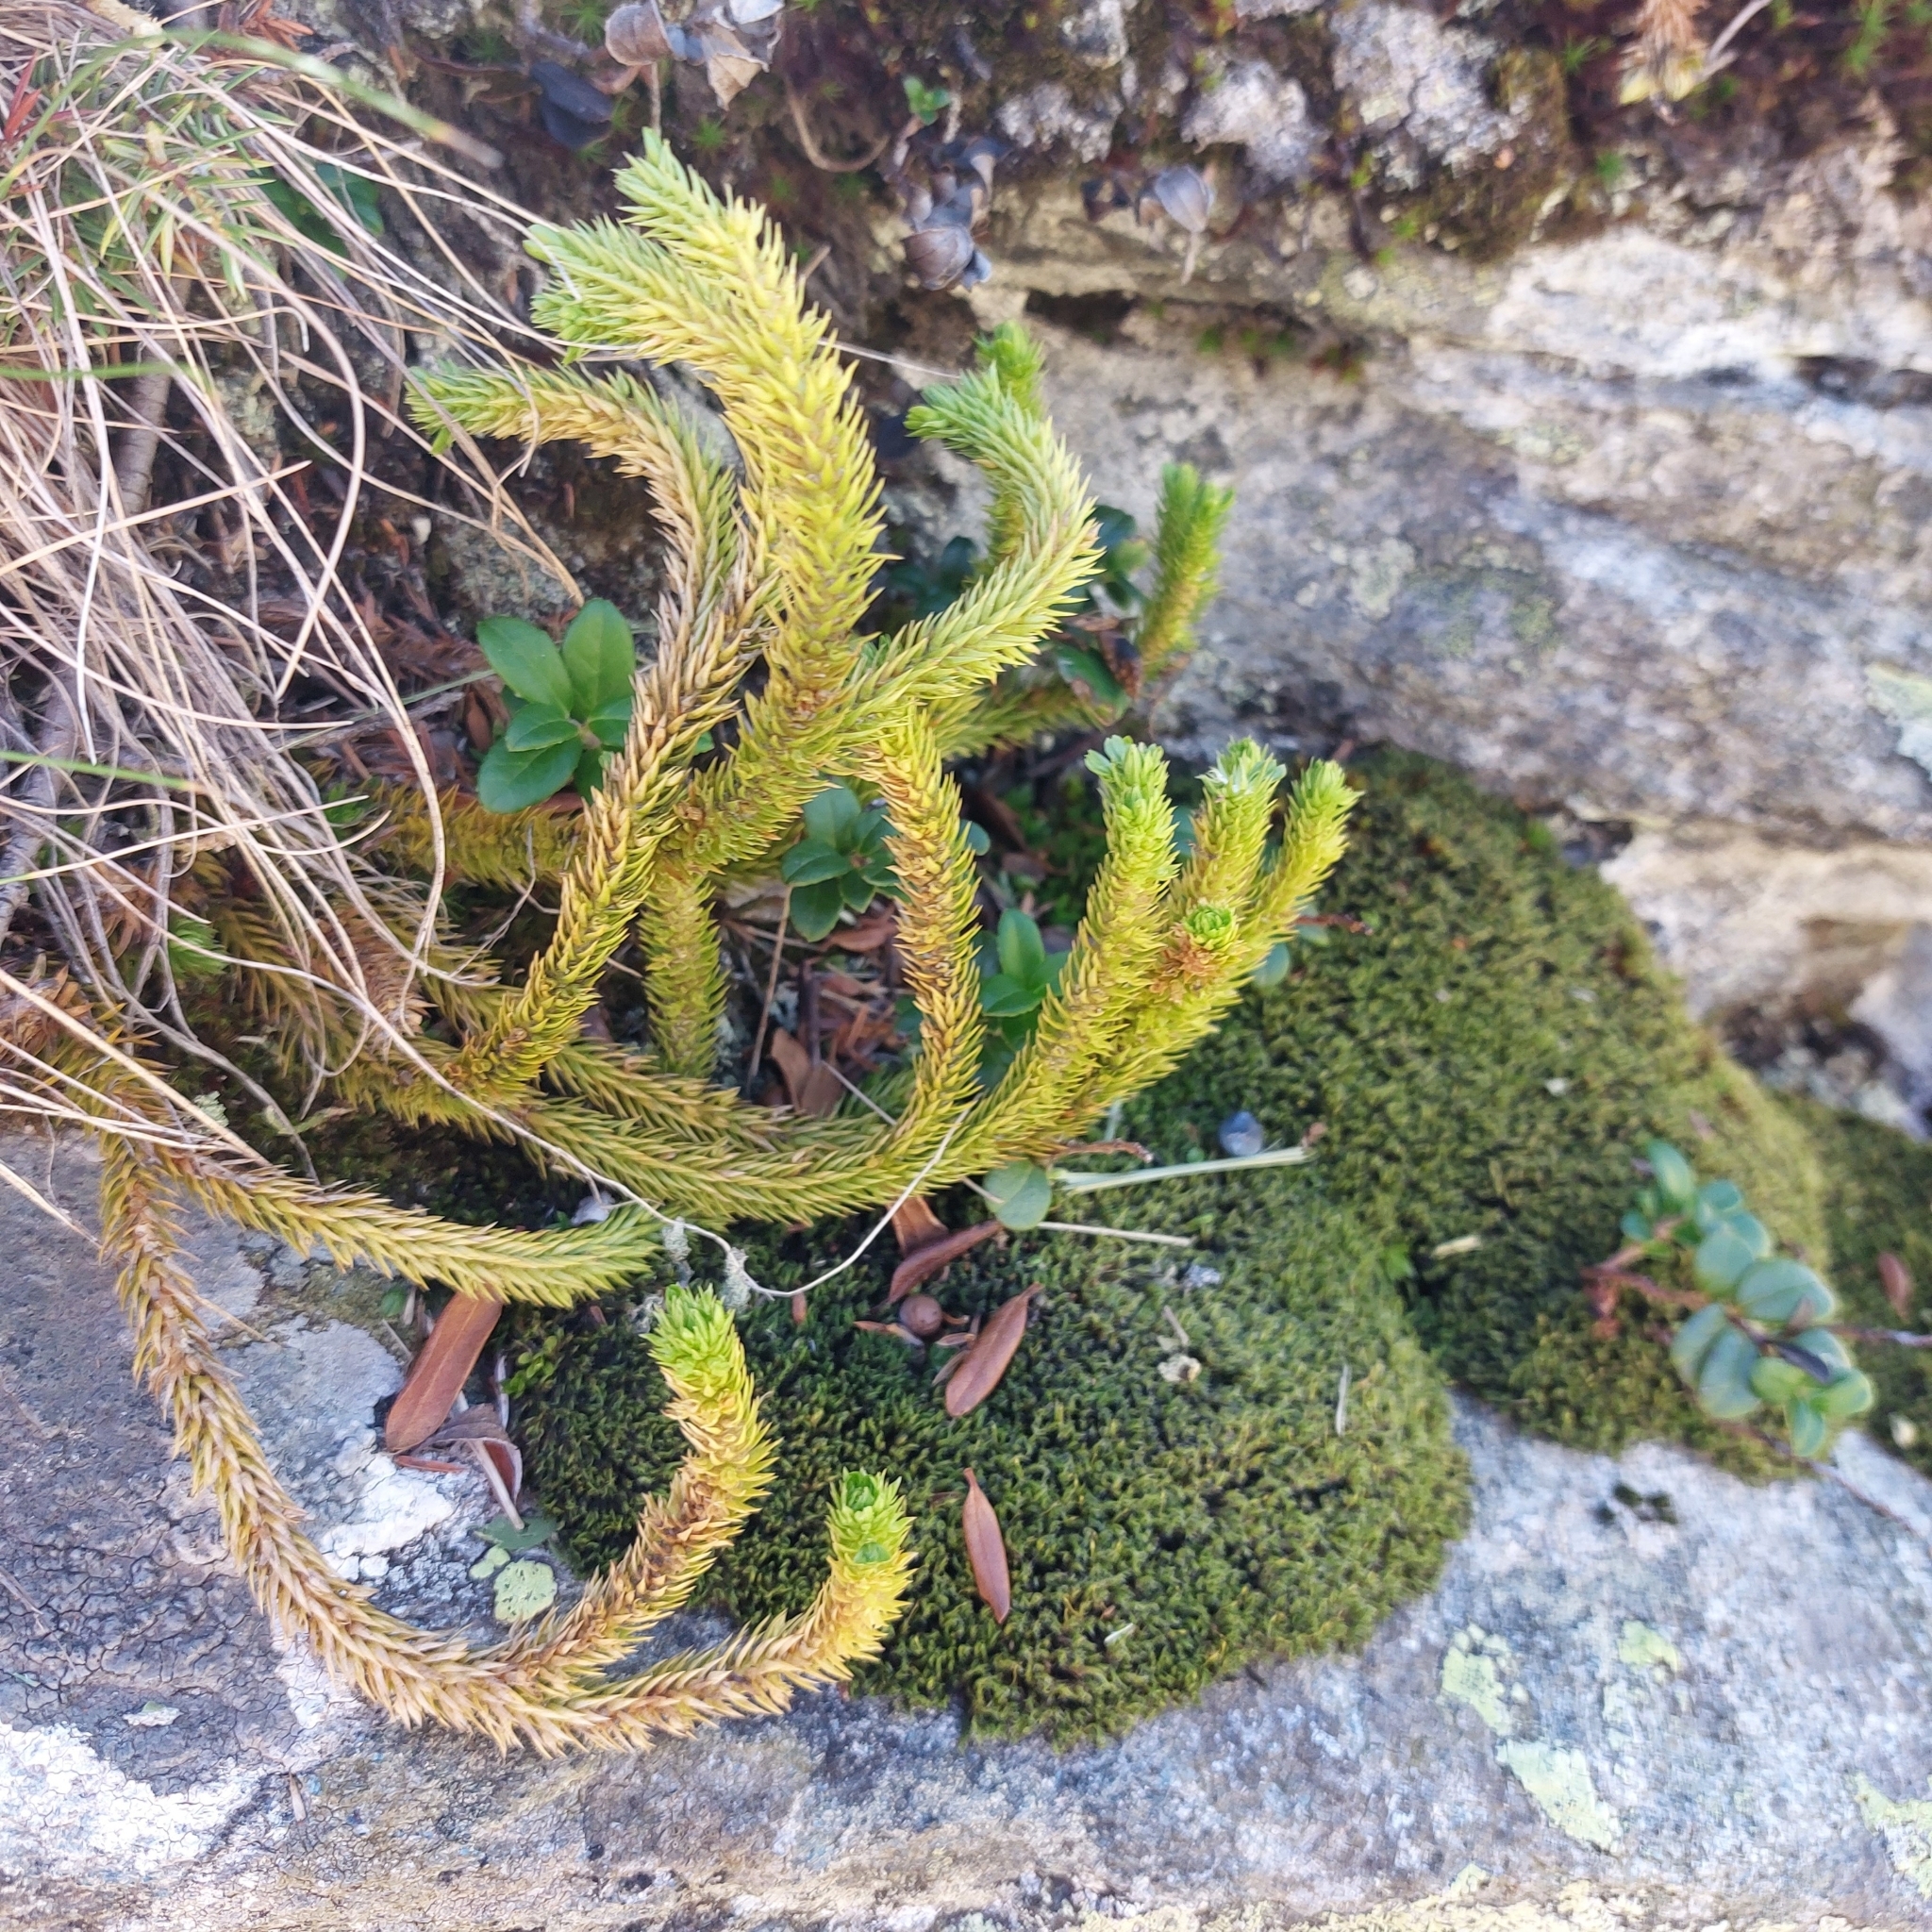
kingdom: Plantae
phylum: Tracheophyta
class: Lycopodiopsida
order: Lycopodiales
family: Lycopodiaceae
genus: Huperzia
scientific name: Huperzia selago
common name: Northern firmoss
